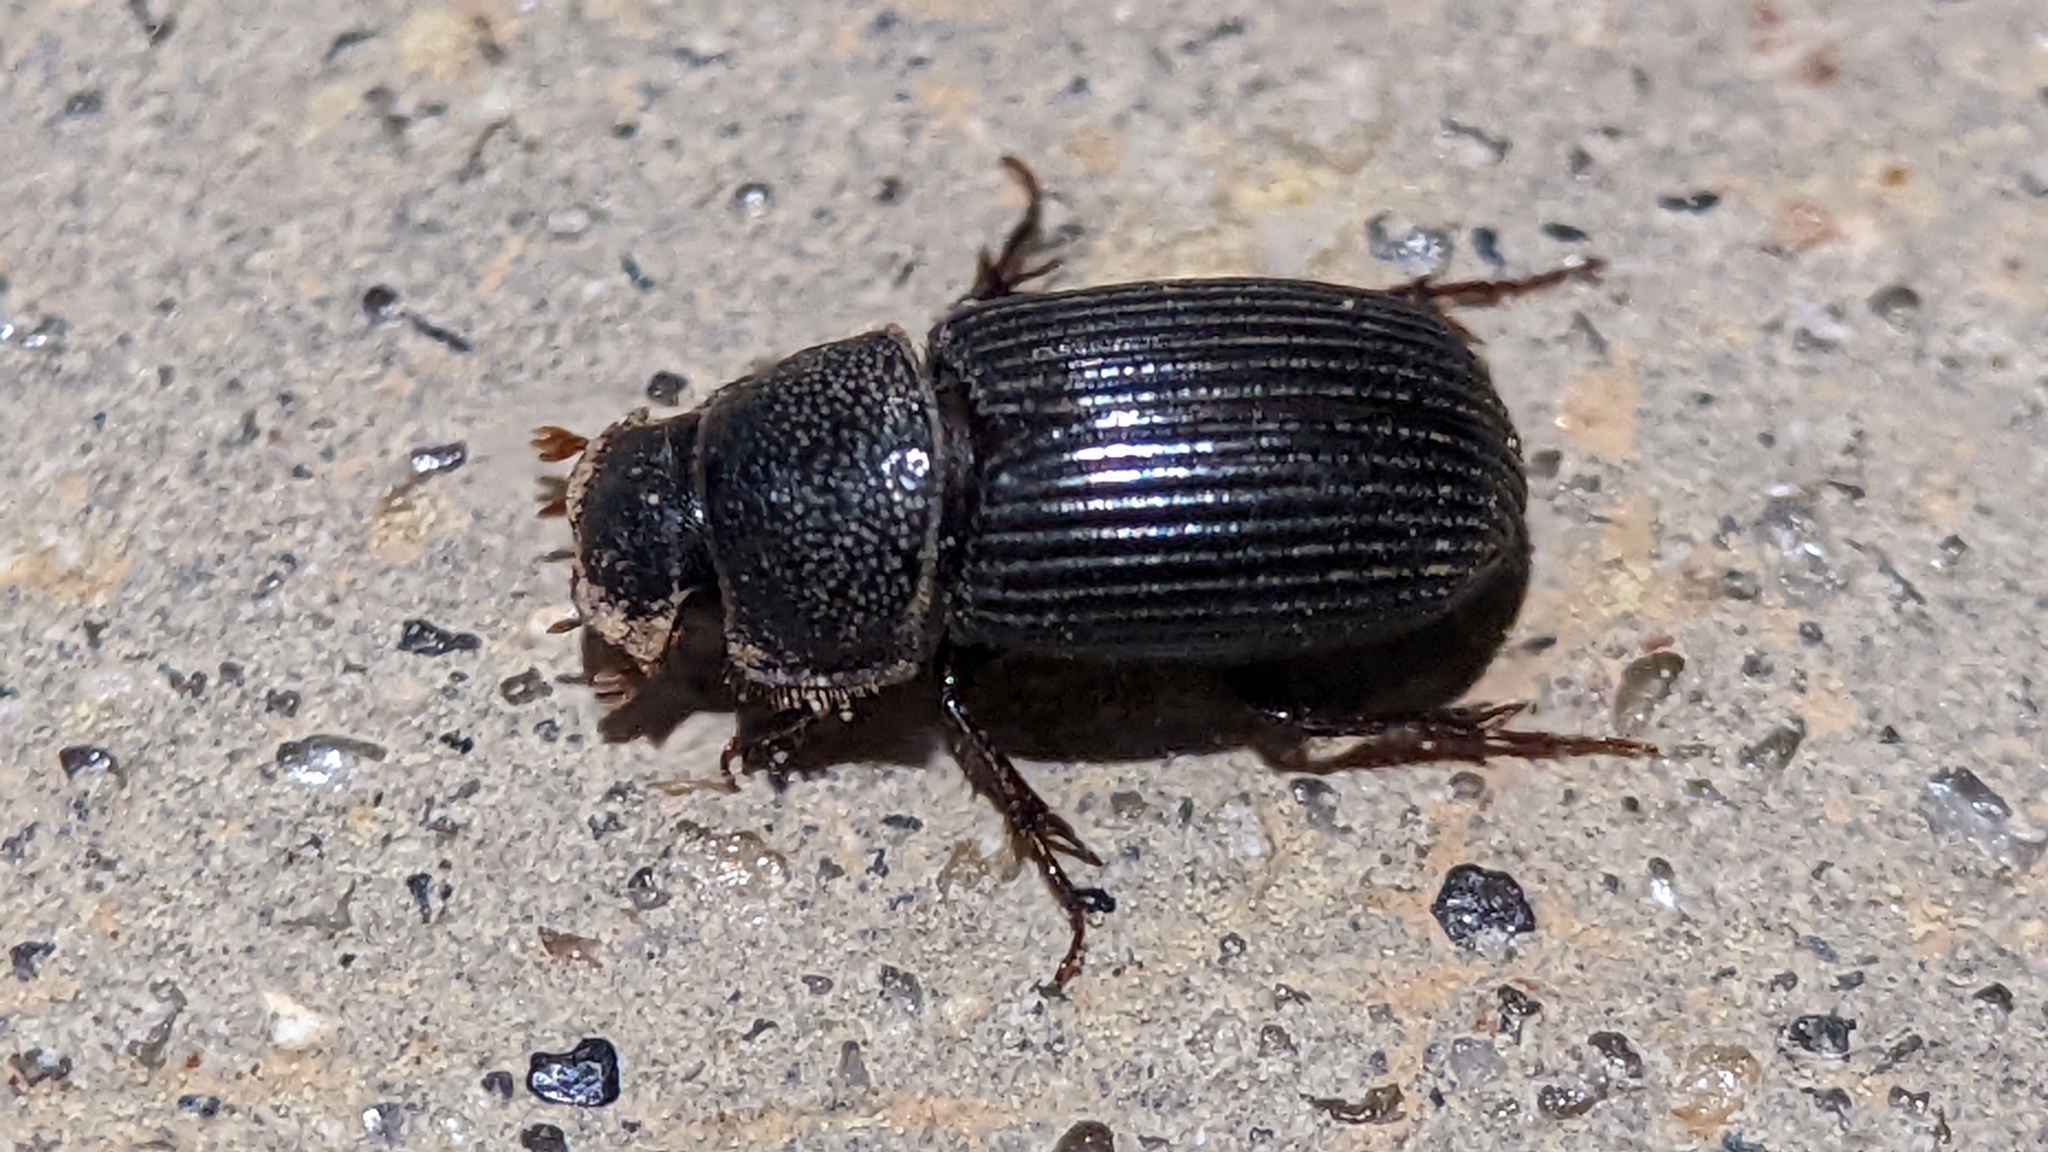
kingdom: Animalia
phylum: Arthropoda
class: Insecta
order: Coleoptera
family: Scarabaeidae
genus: Martineziana
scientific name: Martineziana dutertrei
